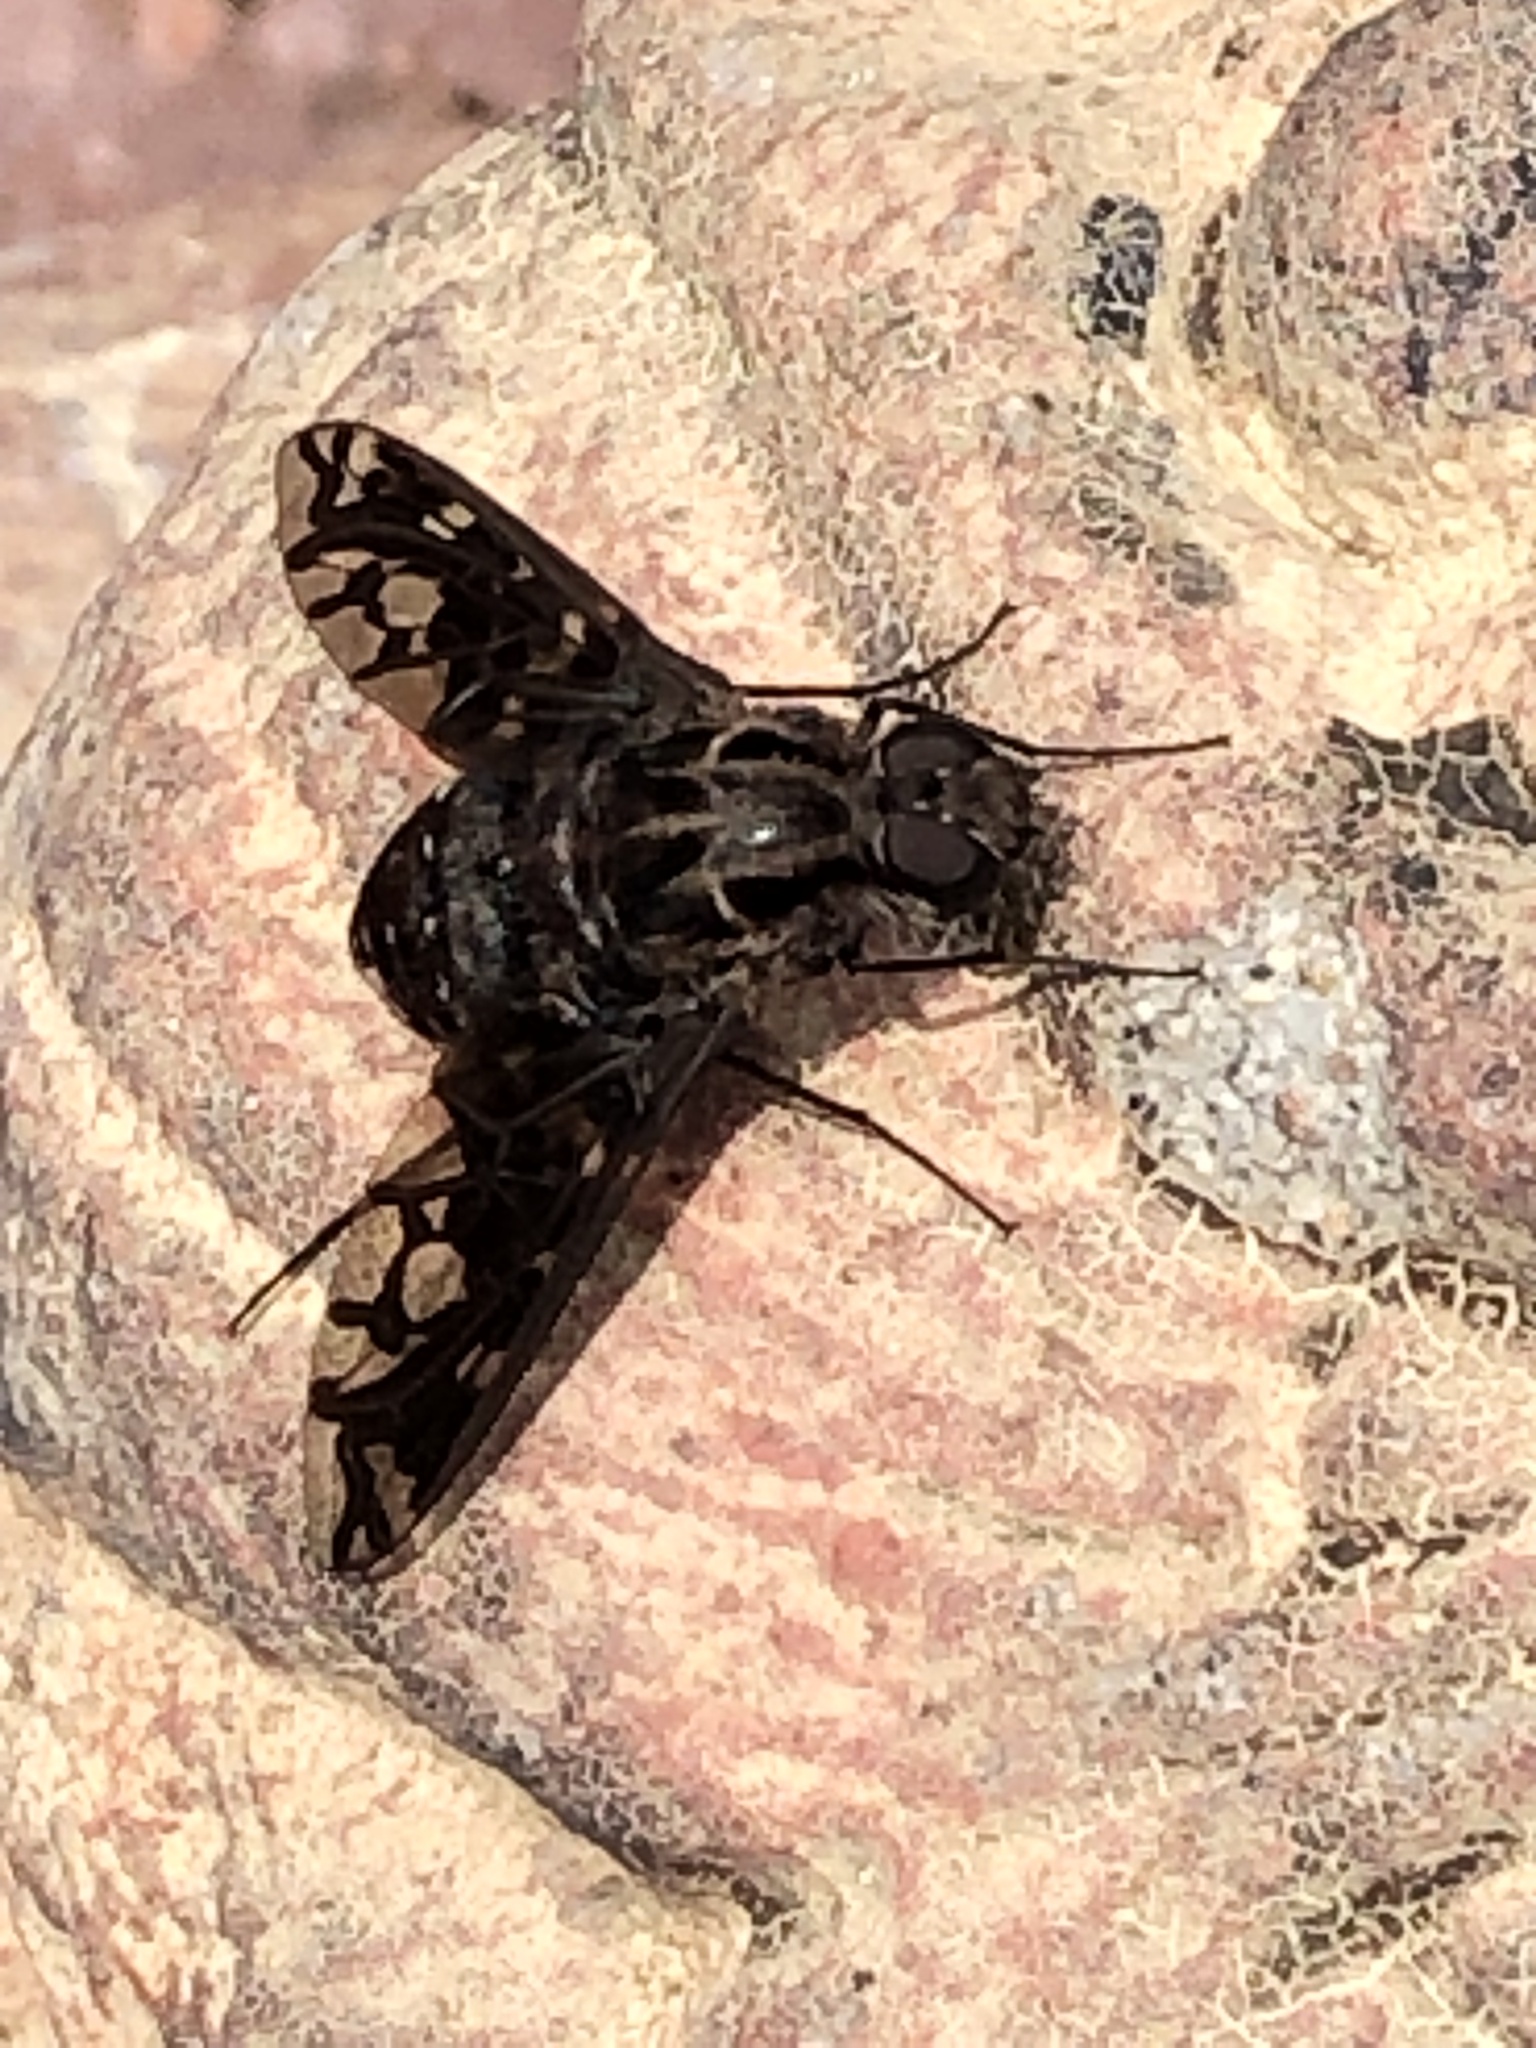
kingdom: Animalia
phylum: Arthropoda
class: Insecta
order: Diptera
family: Bombyliidae
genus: Xenox
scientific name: Xenox tigrinus
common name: Tiger bee fly
